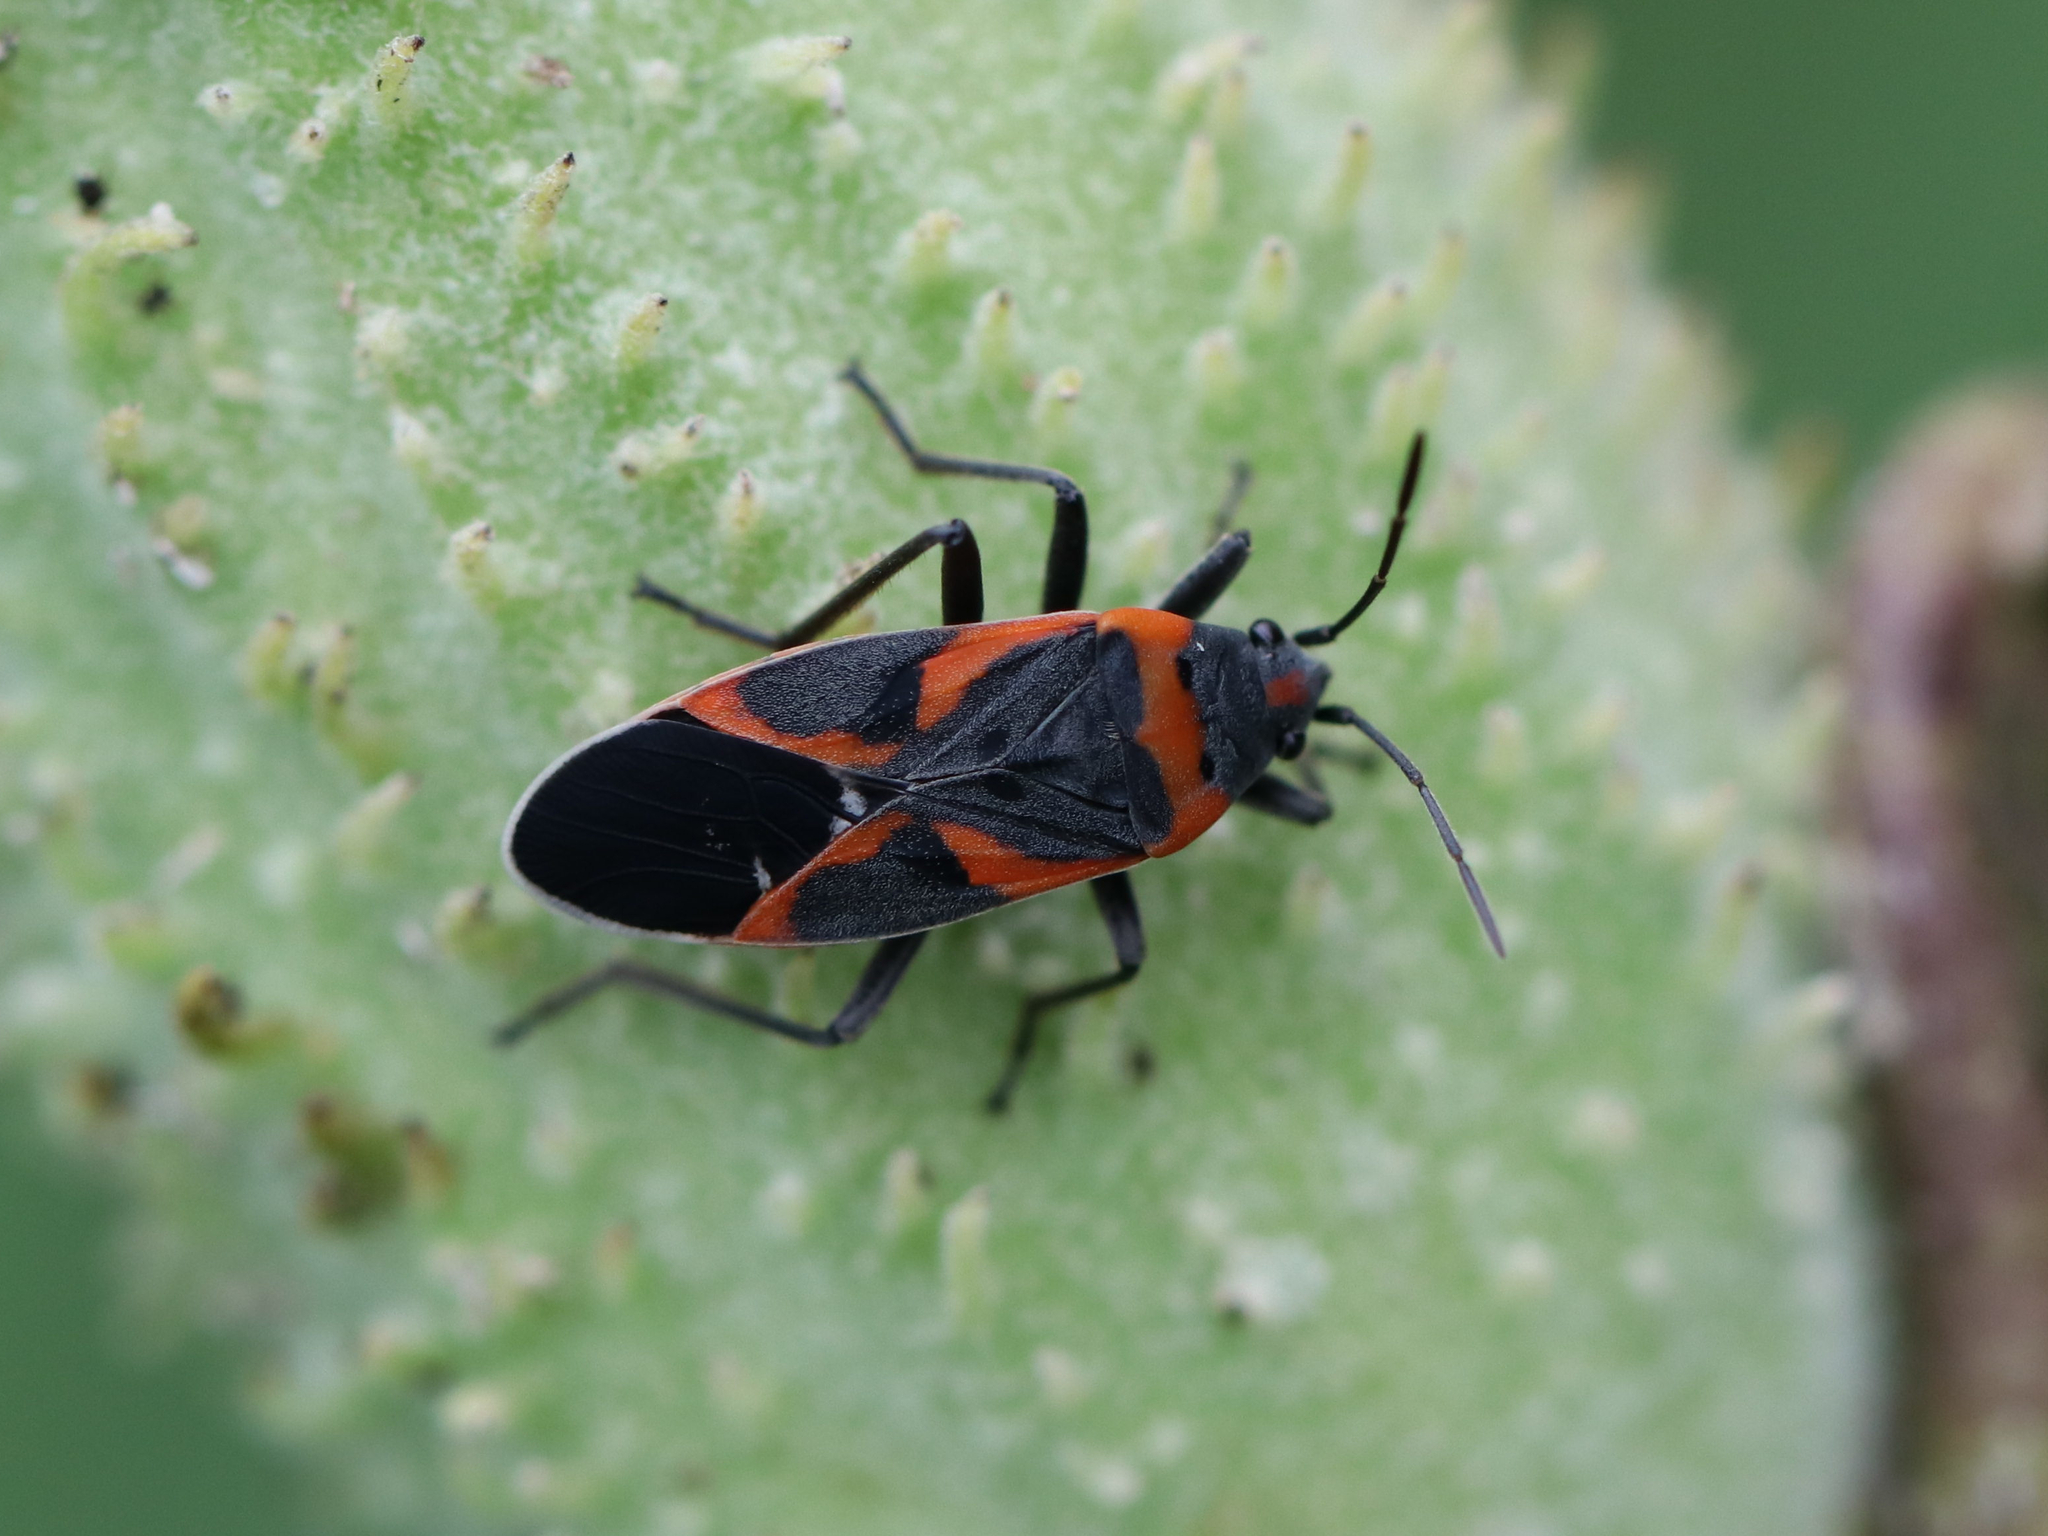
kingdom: Animalia
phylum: Arthropoda
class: Insecta
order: Hemiptera
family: Lygaeidae
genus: Lygaeus
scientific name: Lygaeus kalmii
